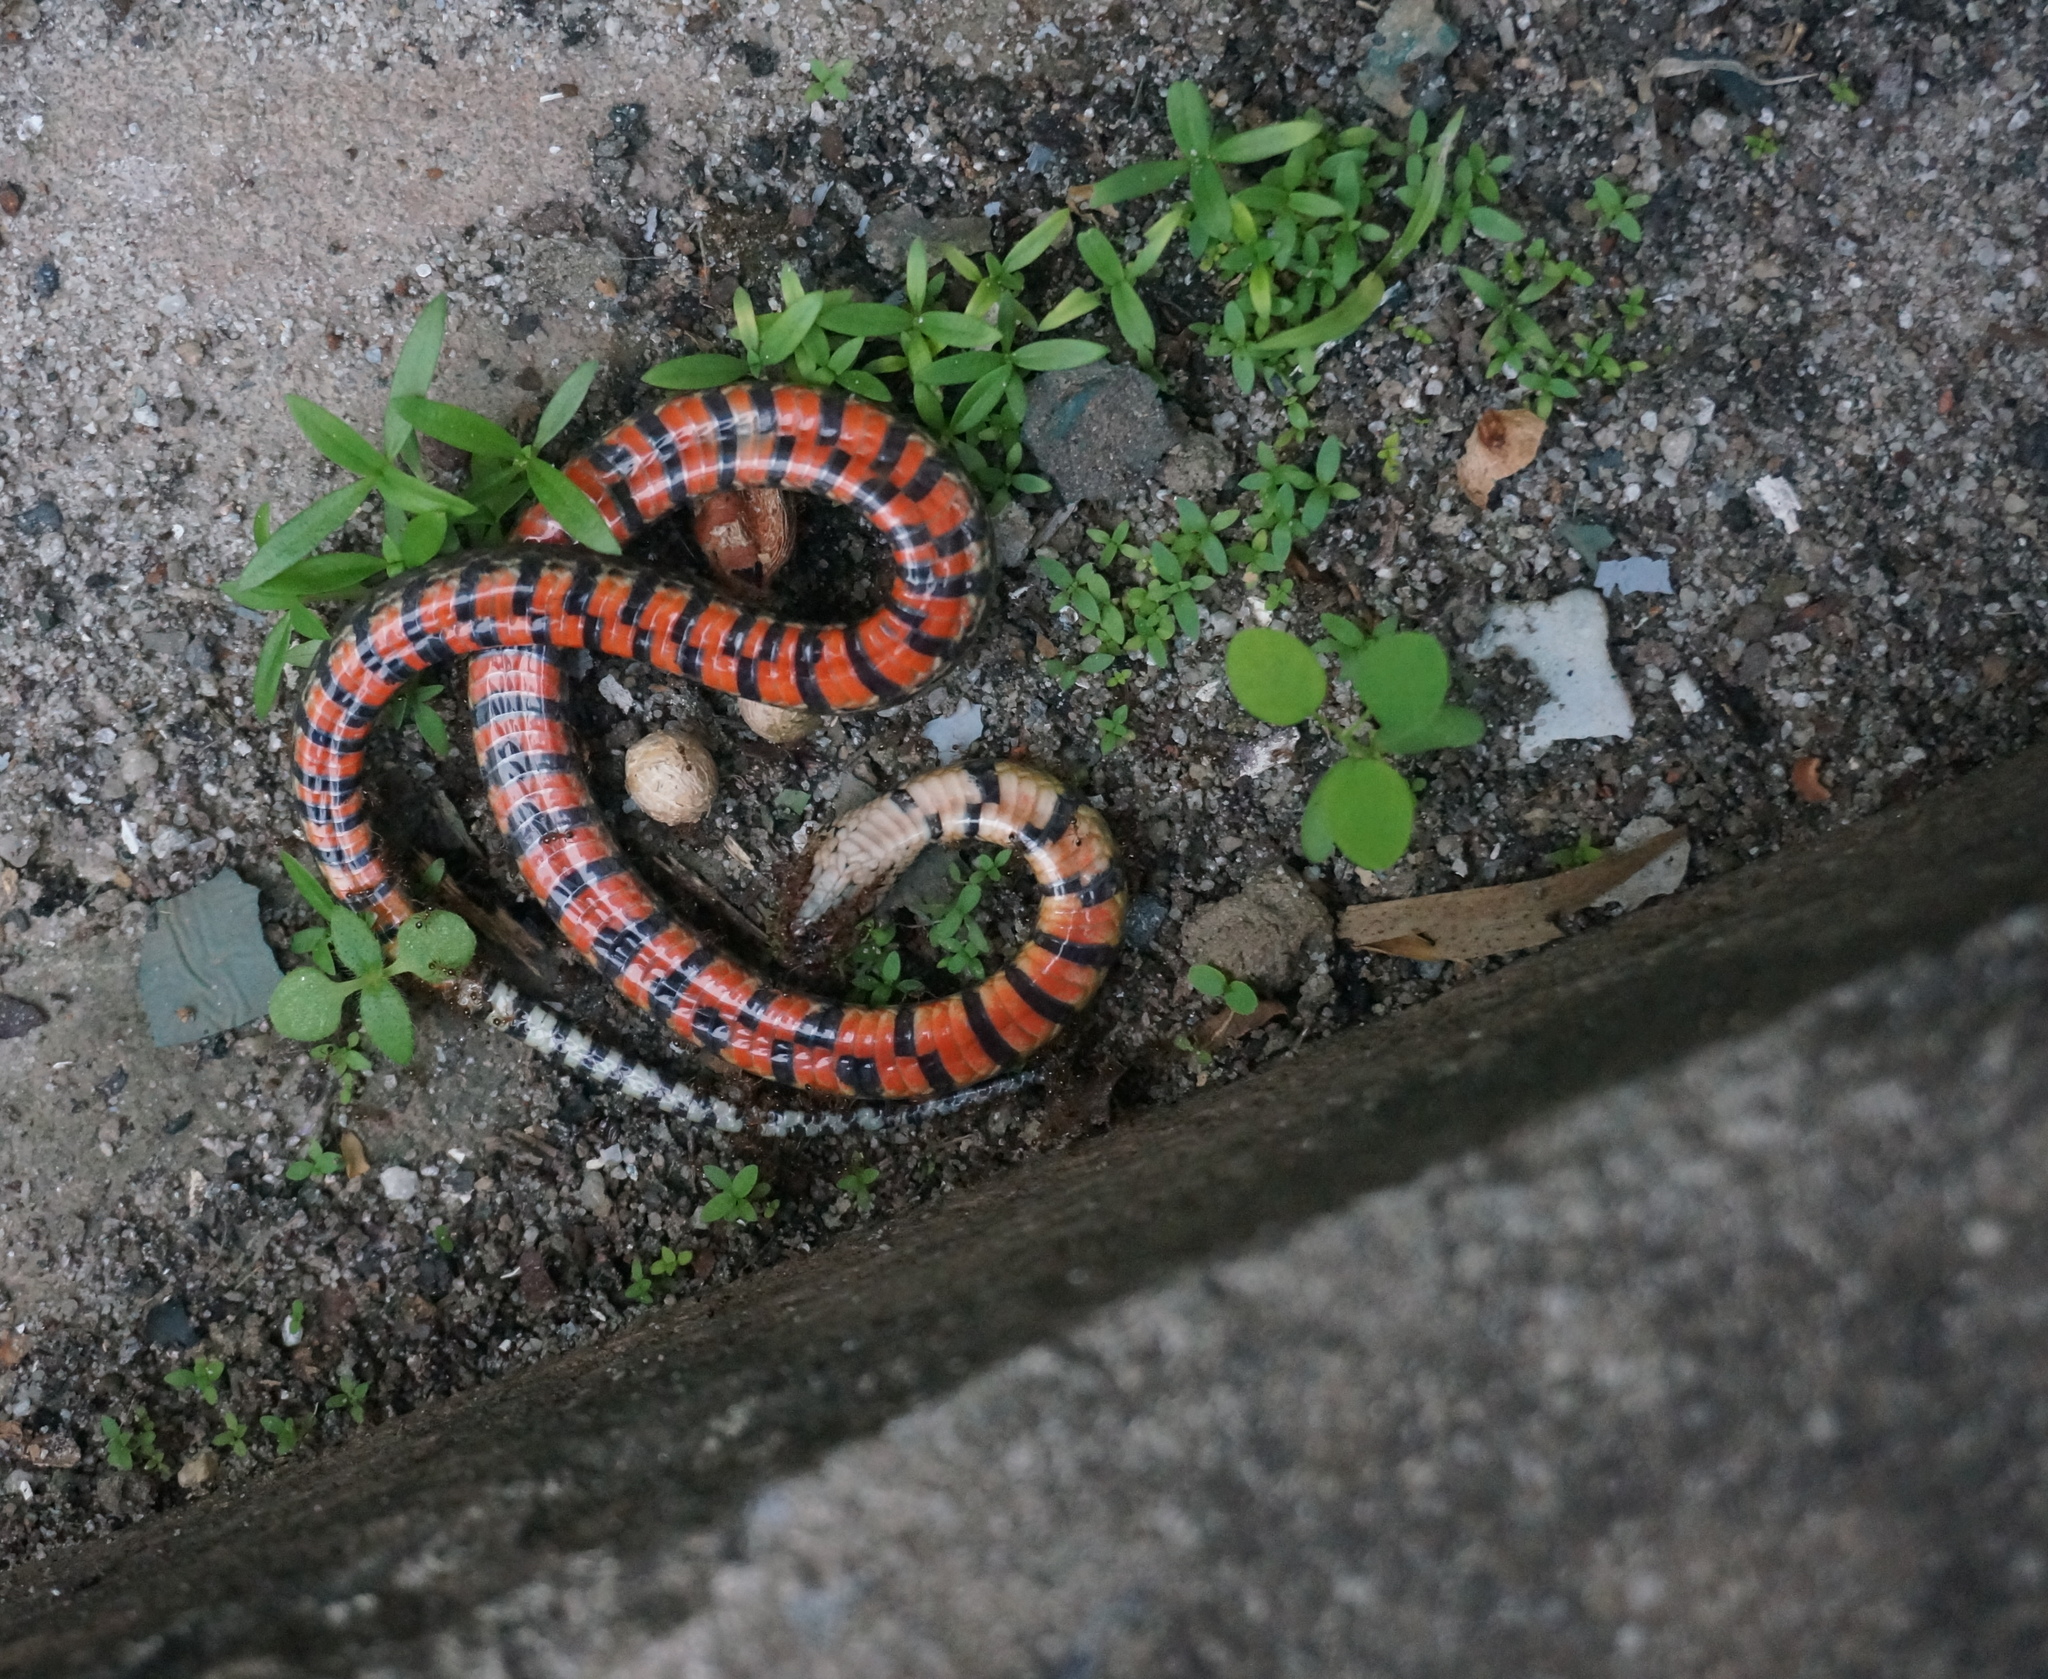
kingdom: Animalia
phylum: Chordata
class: Squamata
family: Colubridae
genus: Erythrolamprus
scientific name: Erythrolamprus breviceps
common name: Short ground snake
